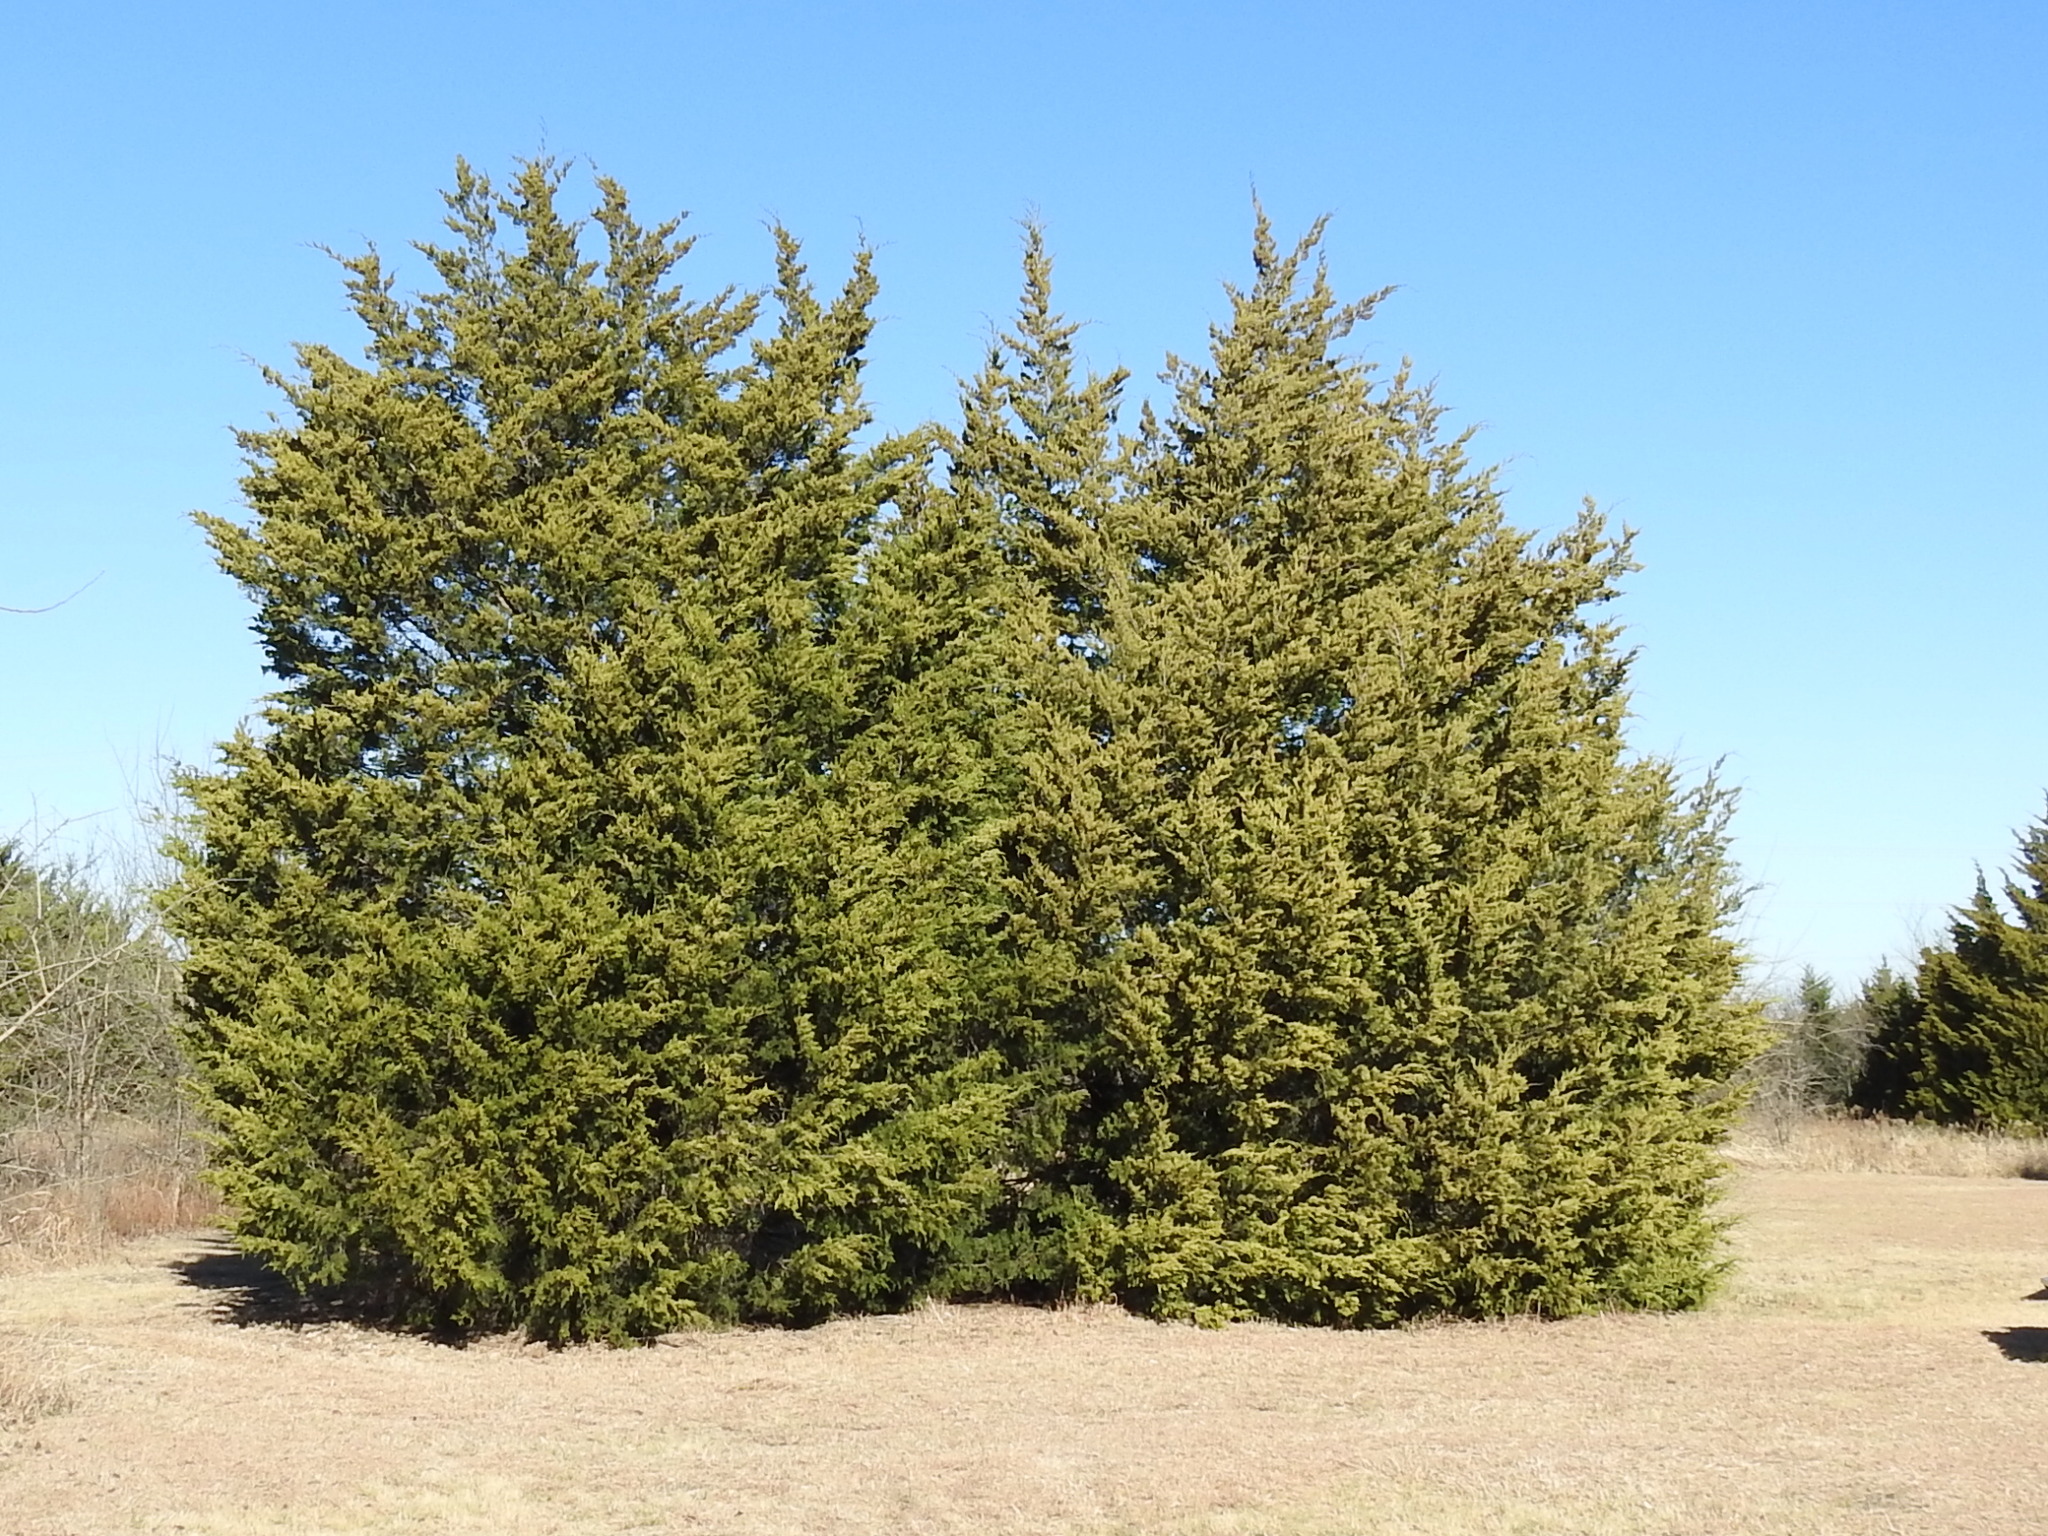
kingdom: Plantae
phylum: Tracheophyta
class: Pinopsida
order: Pinales
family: Cupressaceae
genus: Juniperus
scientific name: Juniperus virginiana
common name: Red juniper
